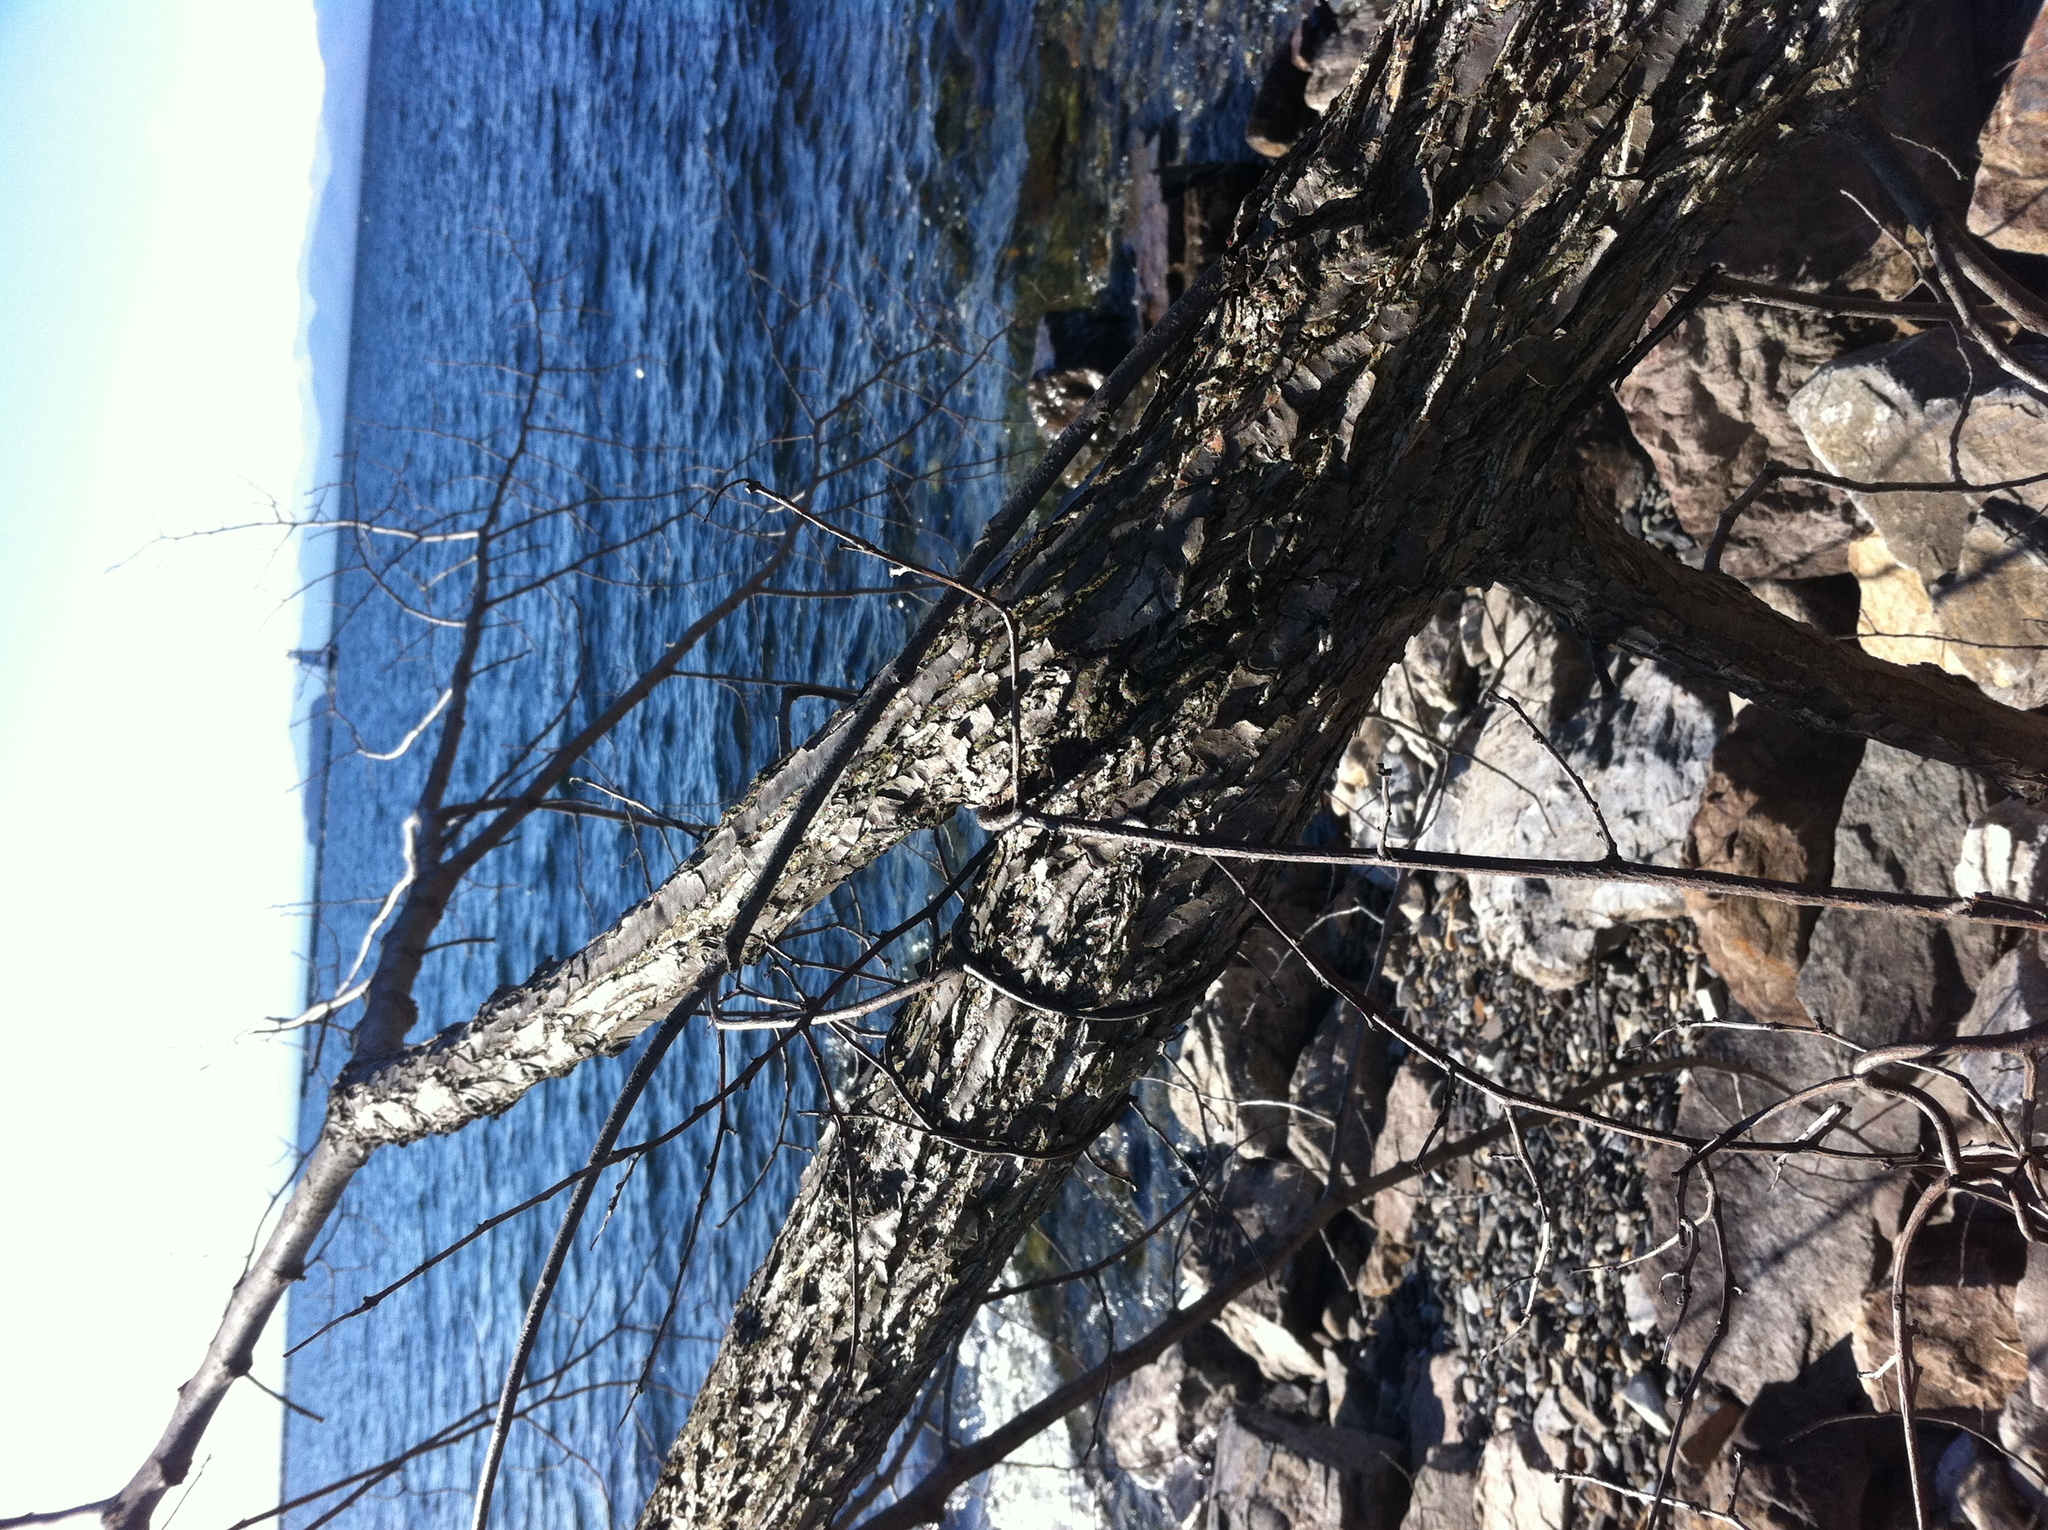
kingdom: Plantae
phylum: Tracheophyta
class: Magnoliopsida
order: Rosales
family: Ulmaceae
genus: Ulmus
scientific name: Ulmus americana
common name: American elm
